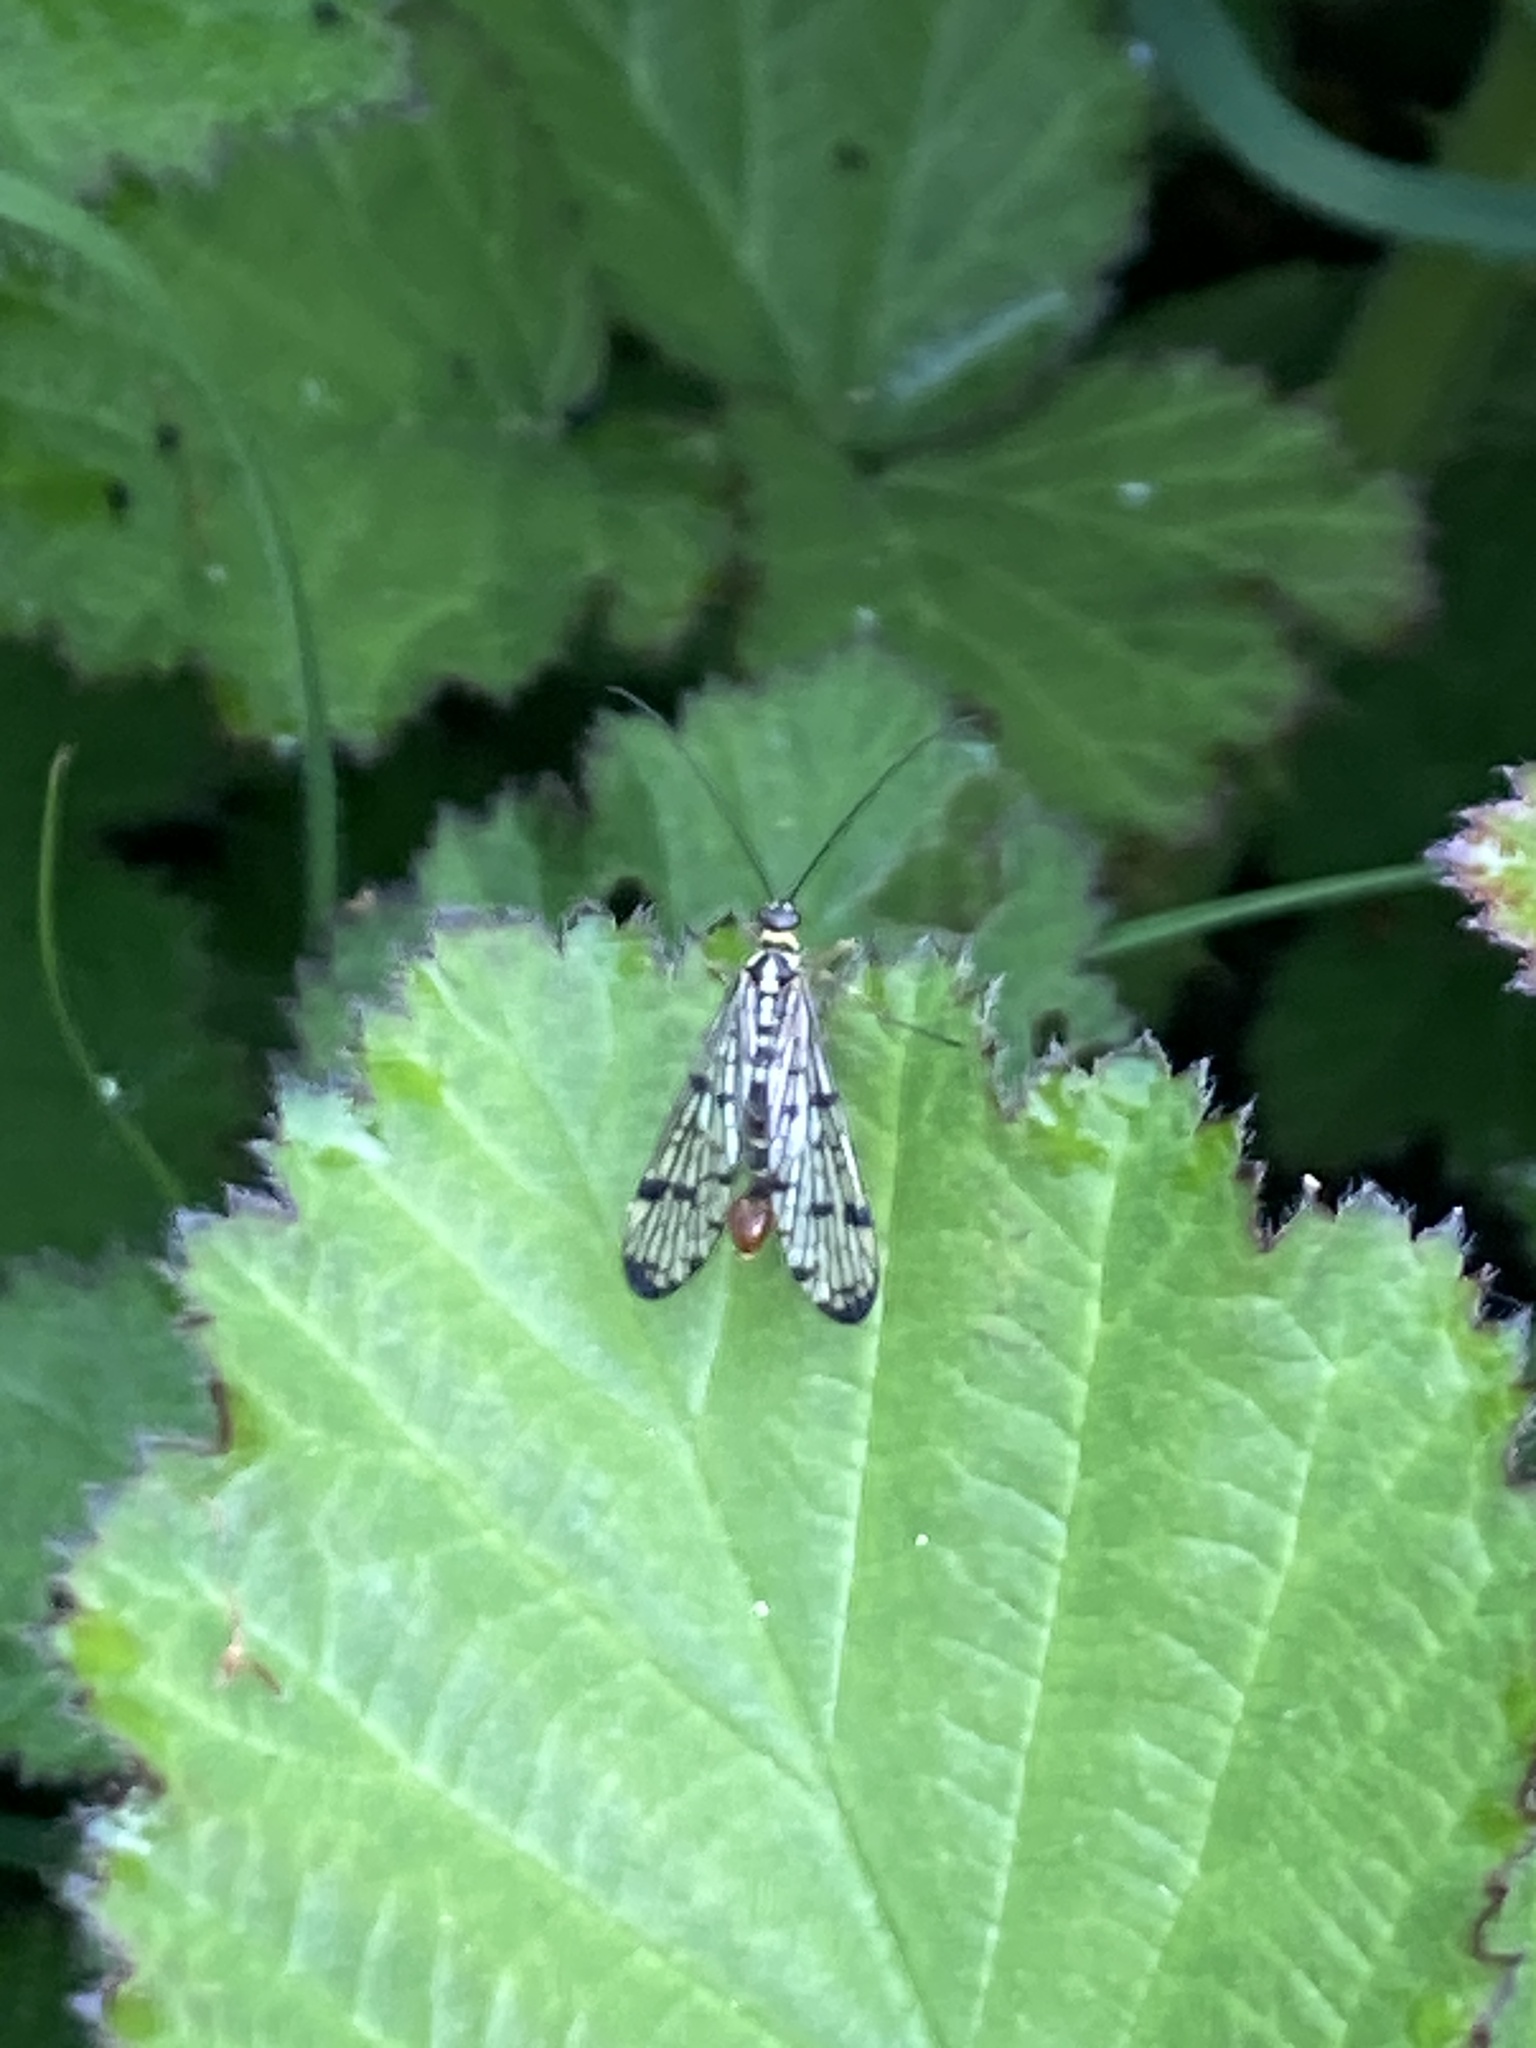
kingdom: Animalia
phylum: Arthropoda
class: Insecta
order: Mecoptera
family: Panorpidae
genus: Panorpa
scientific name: Panorpa germanica
